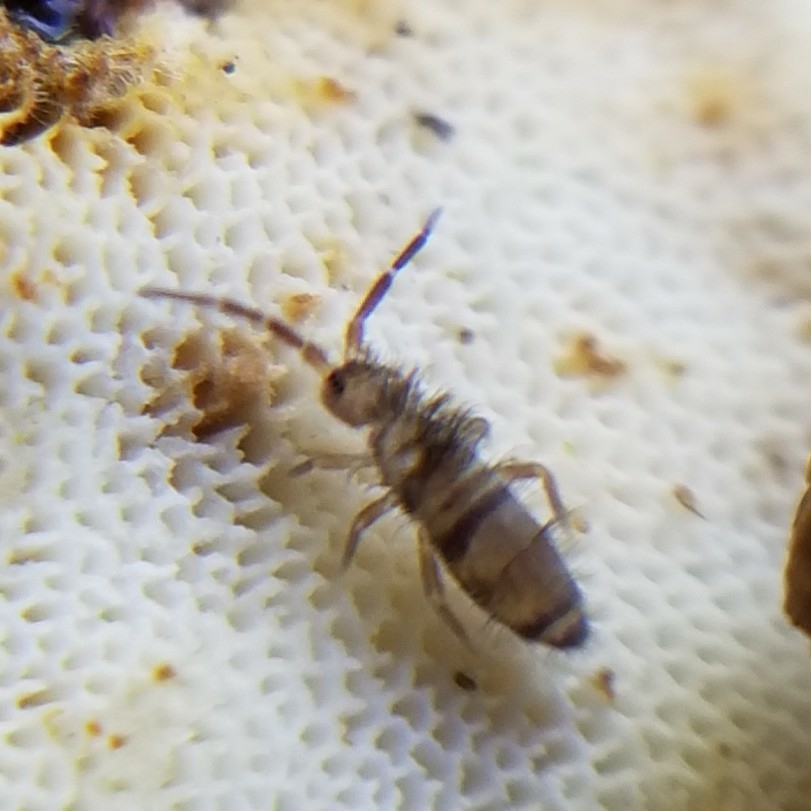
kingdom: Animalia
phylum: Arthropoda
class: Collembola
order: Entomobryomorpha
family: Entomobryidae
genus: Homidia
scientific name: Homidia sauteri
